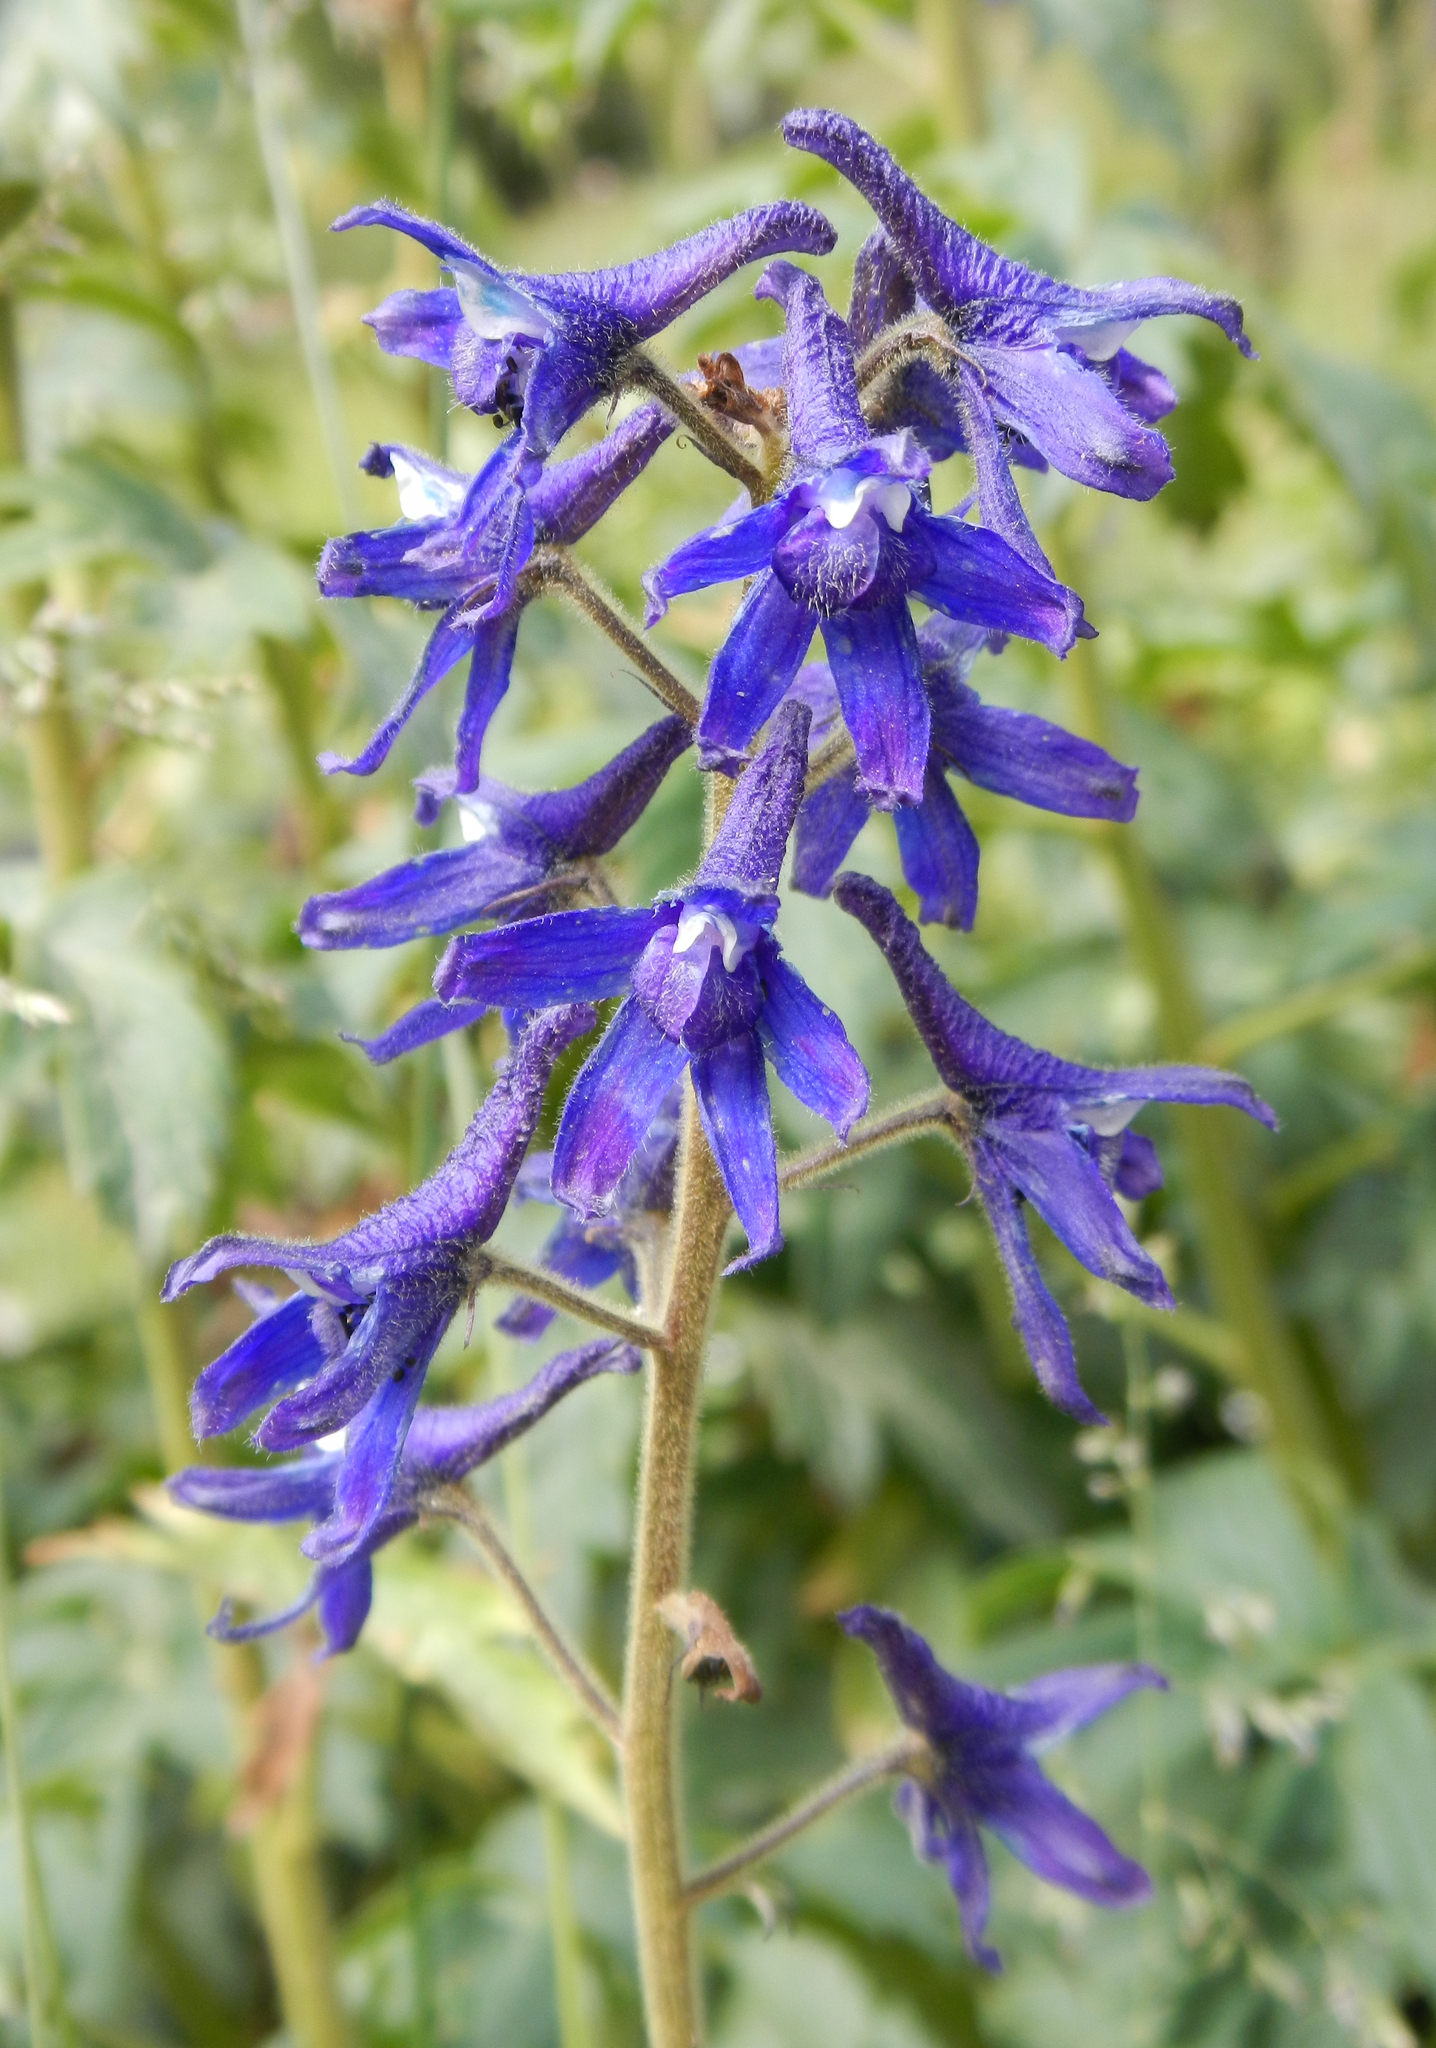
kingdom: Plantae
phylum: Tracheophyta
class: Magnoliopsida
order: Ranunculales
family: Ranunculaceae
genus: Delphinium
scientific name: Delphinium barbeyi
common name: Subalpine larkspur
